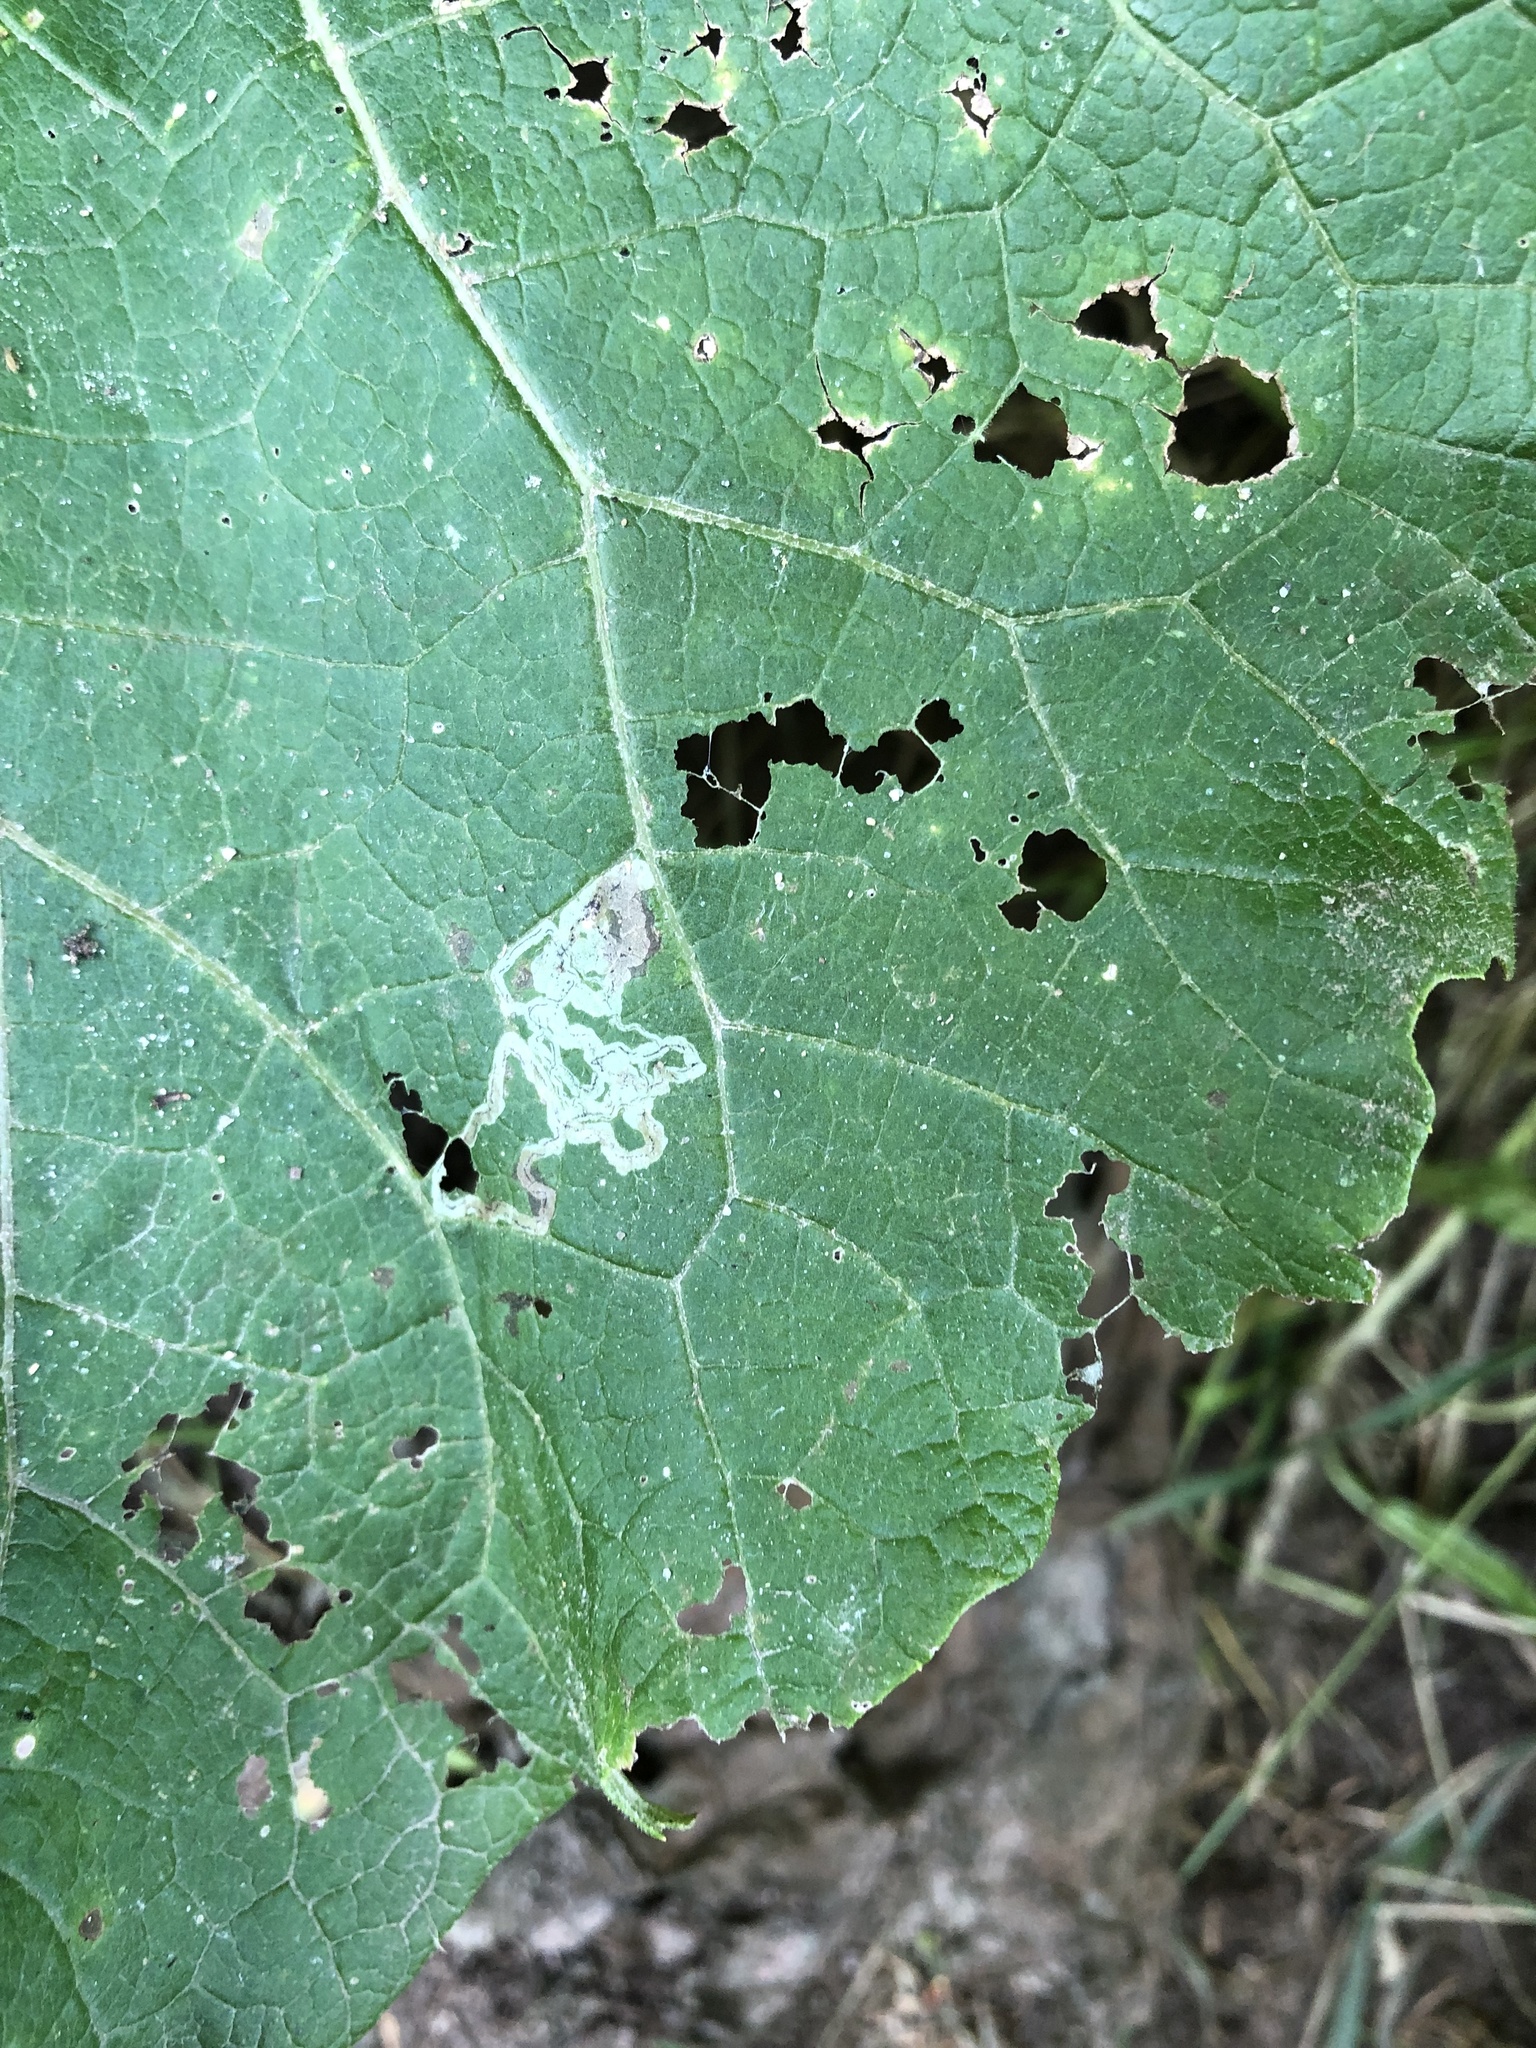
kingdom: Animalia
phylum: Arthropoda
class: Insecta
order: Diptera
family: Agromyzidae
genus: Liriomyza
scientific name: Liriomyza arctii
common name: Burdock leafminer
